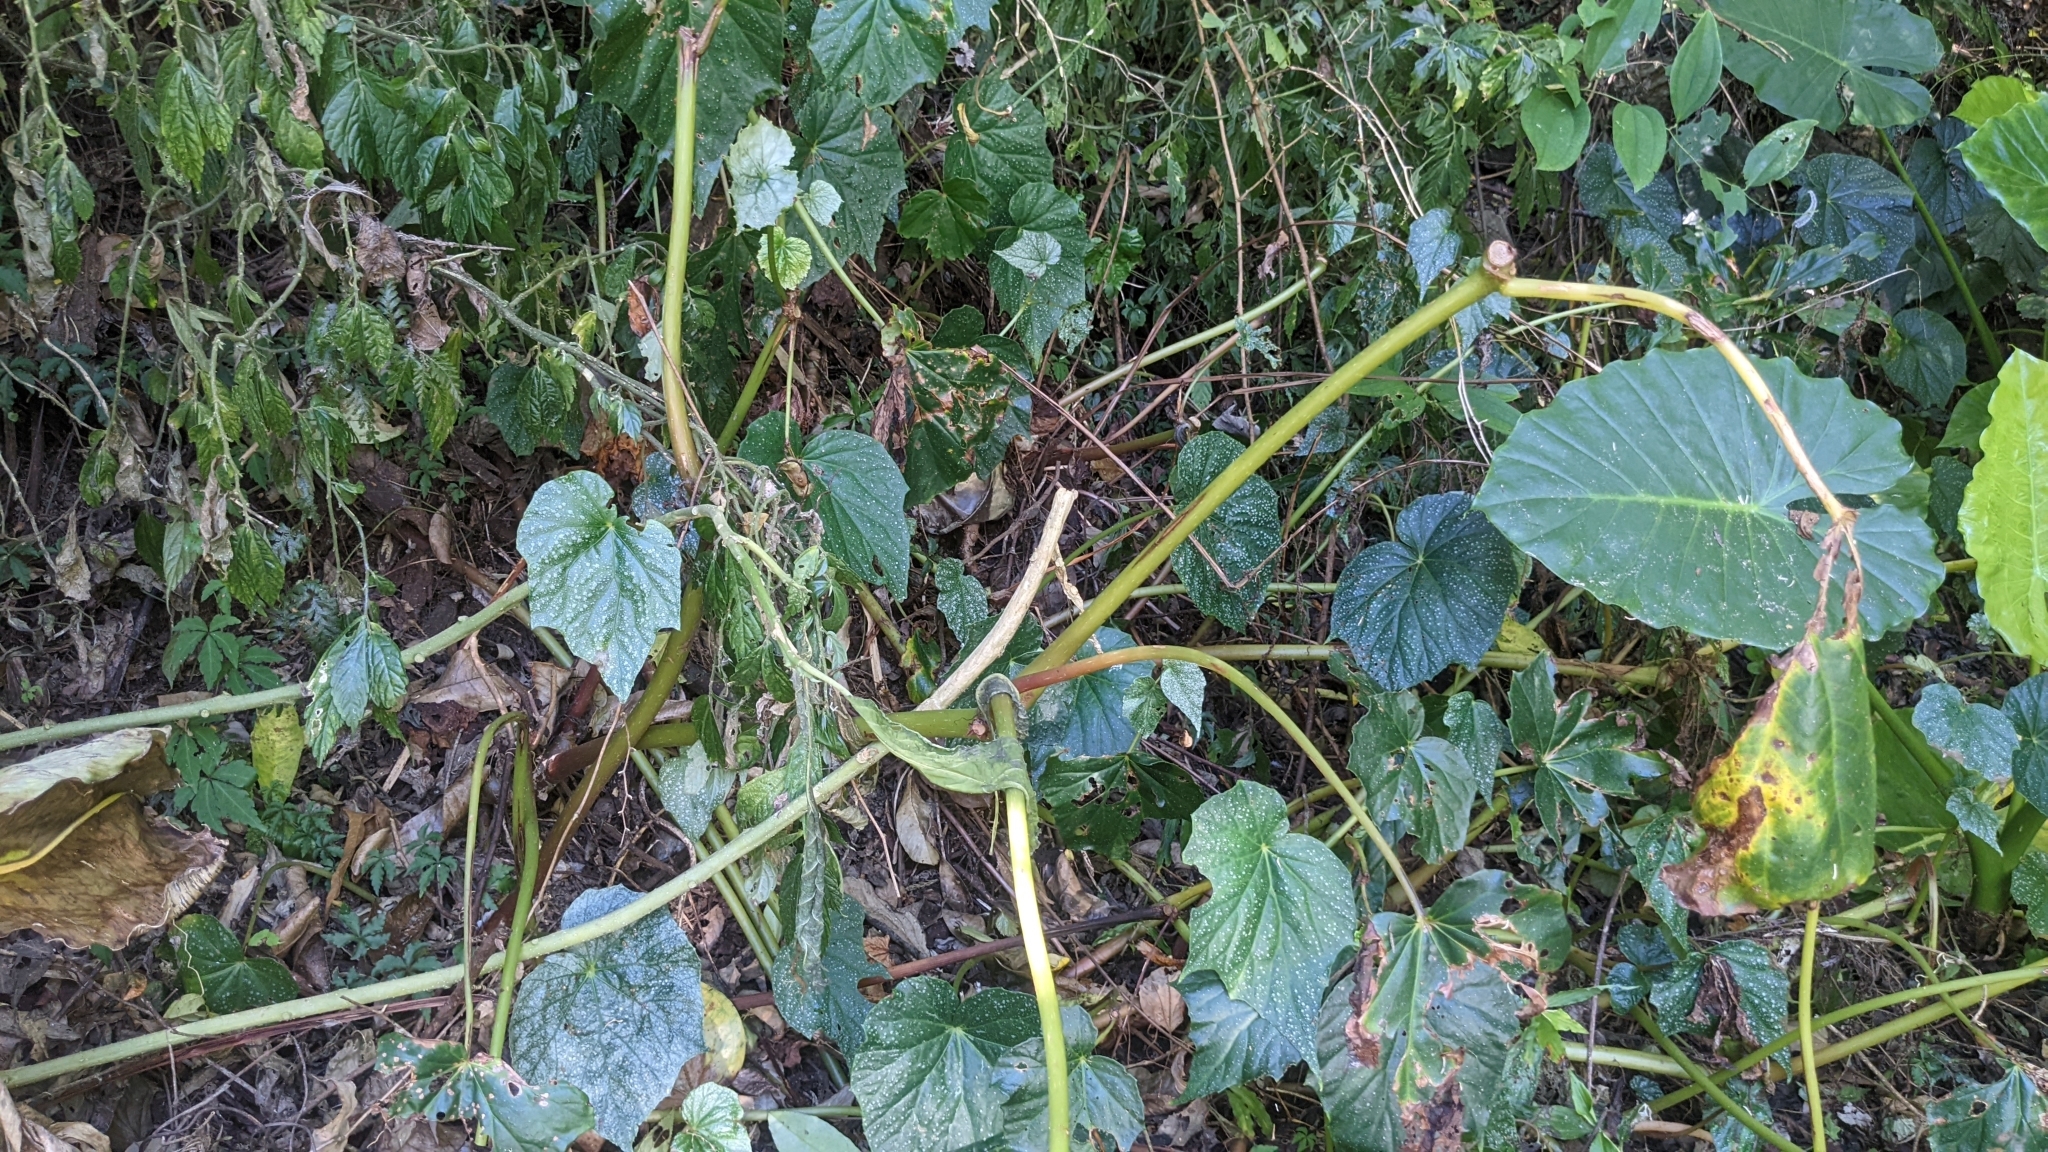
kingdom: Plantae
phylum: Tracheophyta
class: Magnoliopsida
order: Cucurbitales
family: Begoniaceae
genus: Begonia
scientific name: Begonia formosana
